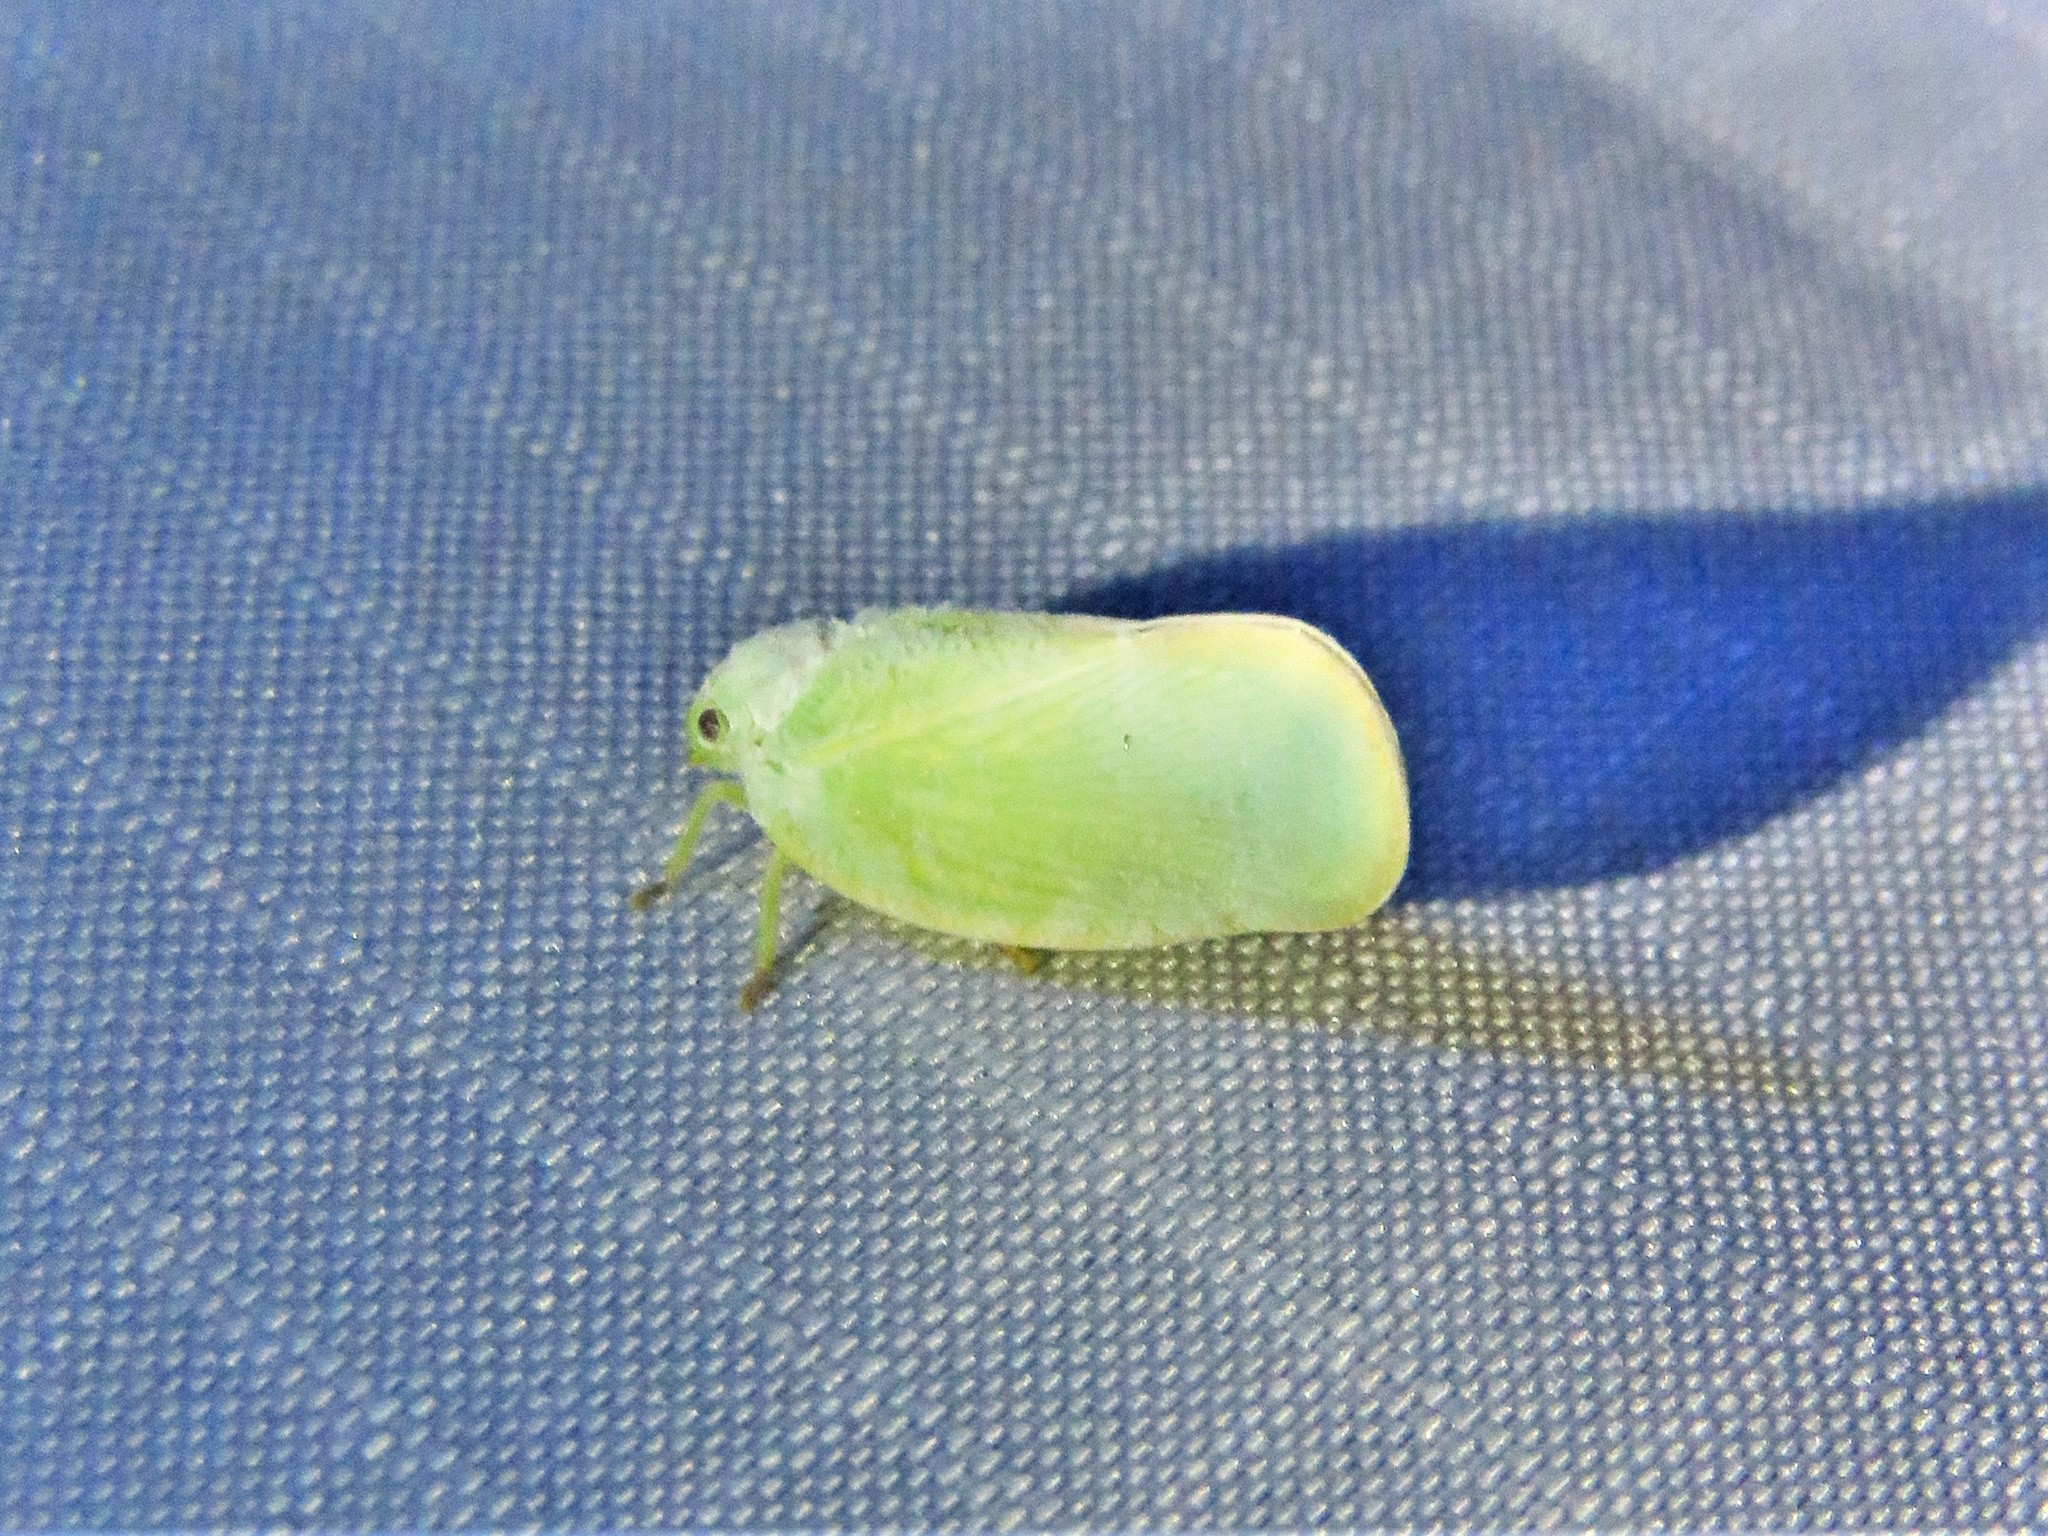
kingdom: Animalia
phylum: Arthropoda
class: Insecta
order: Hemiptera
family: Flatidae
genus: Ormenoides
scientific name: Ormenoides venusta
